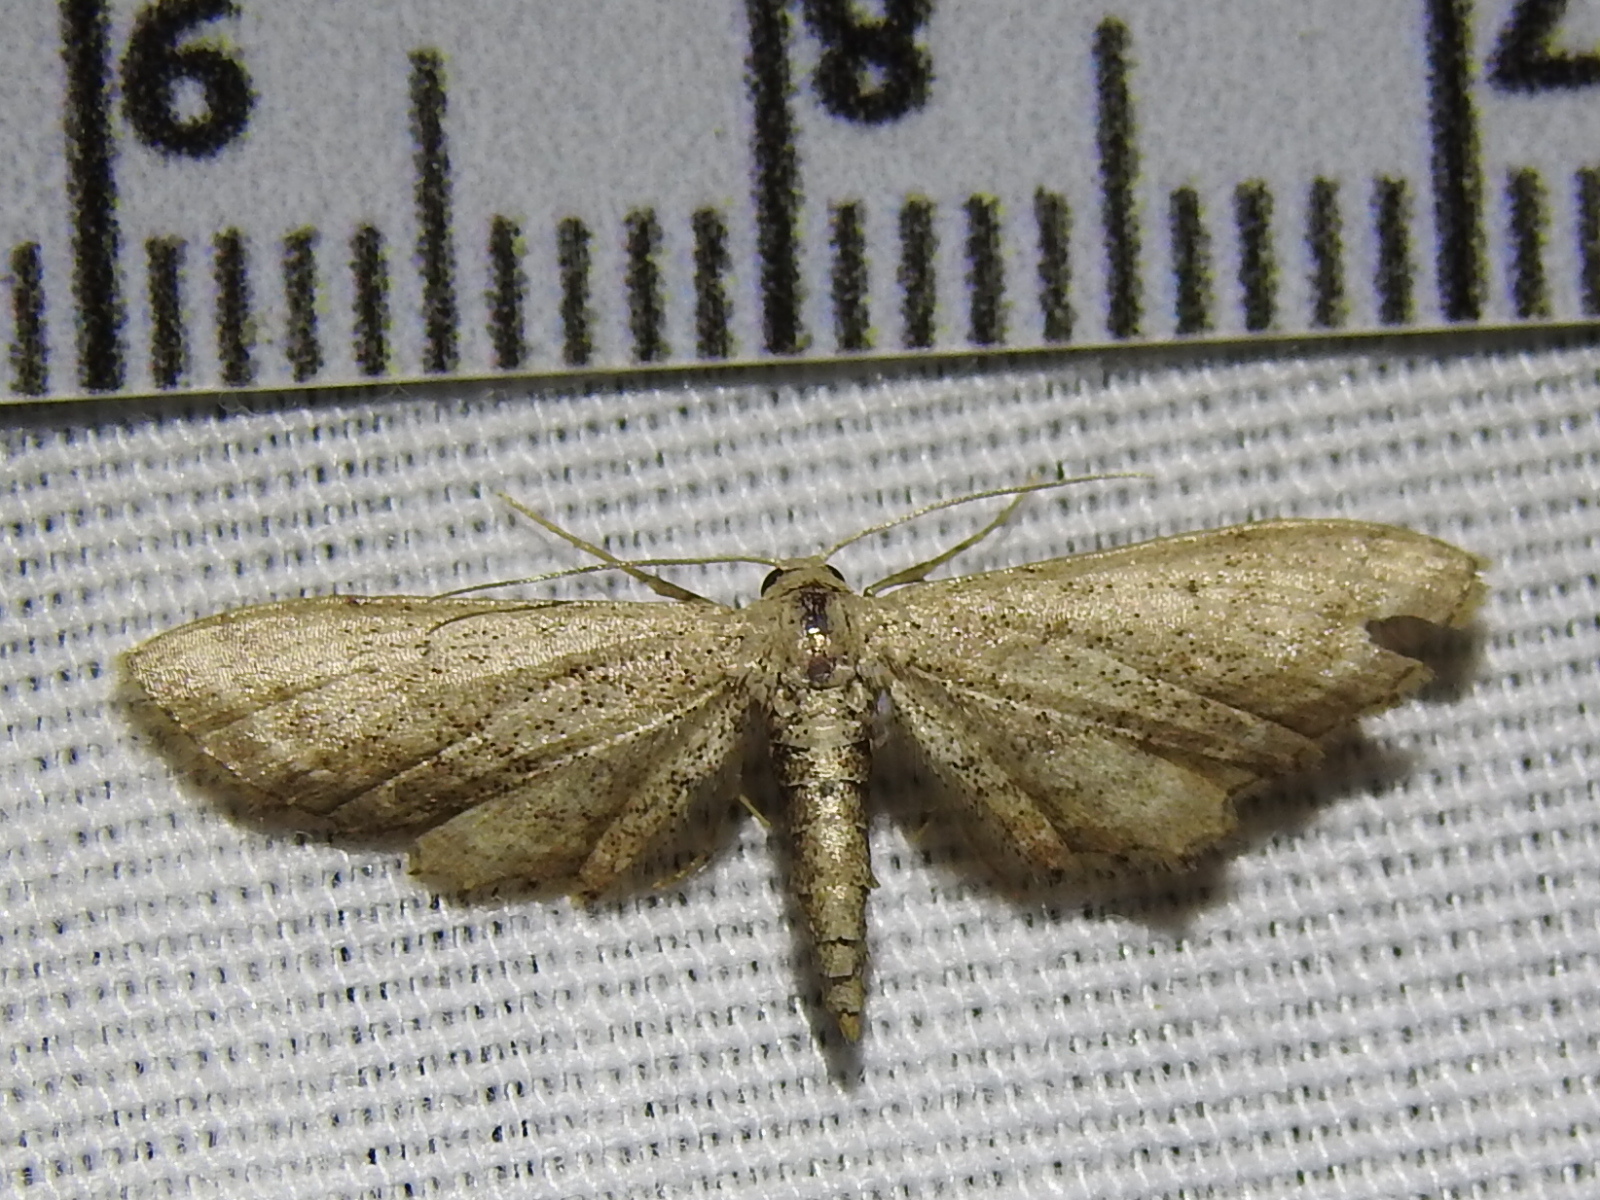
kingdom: Animalia
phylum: Arthropoda
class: Insecta
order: Lepidoptera
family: Geometridae
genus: Eumacrodes
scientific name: Eumacrodes yponomeutaria
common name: Slender geometrid moth
